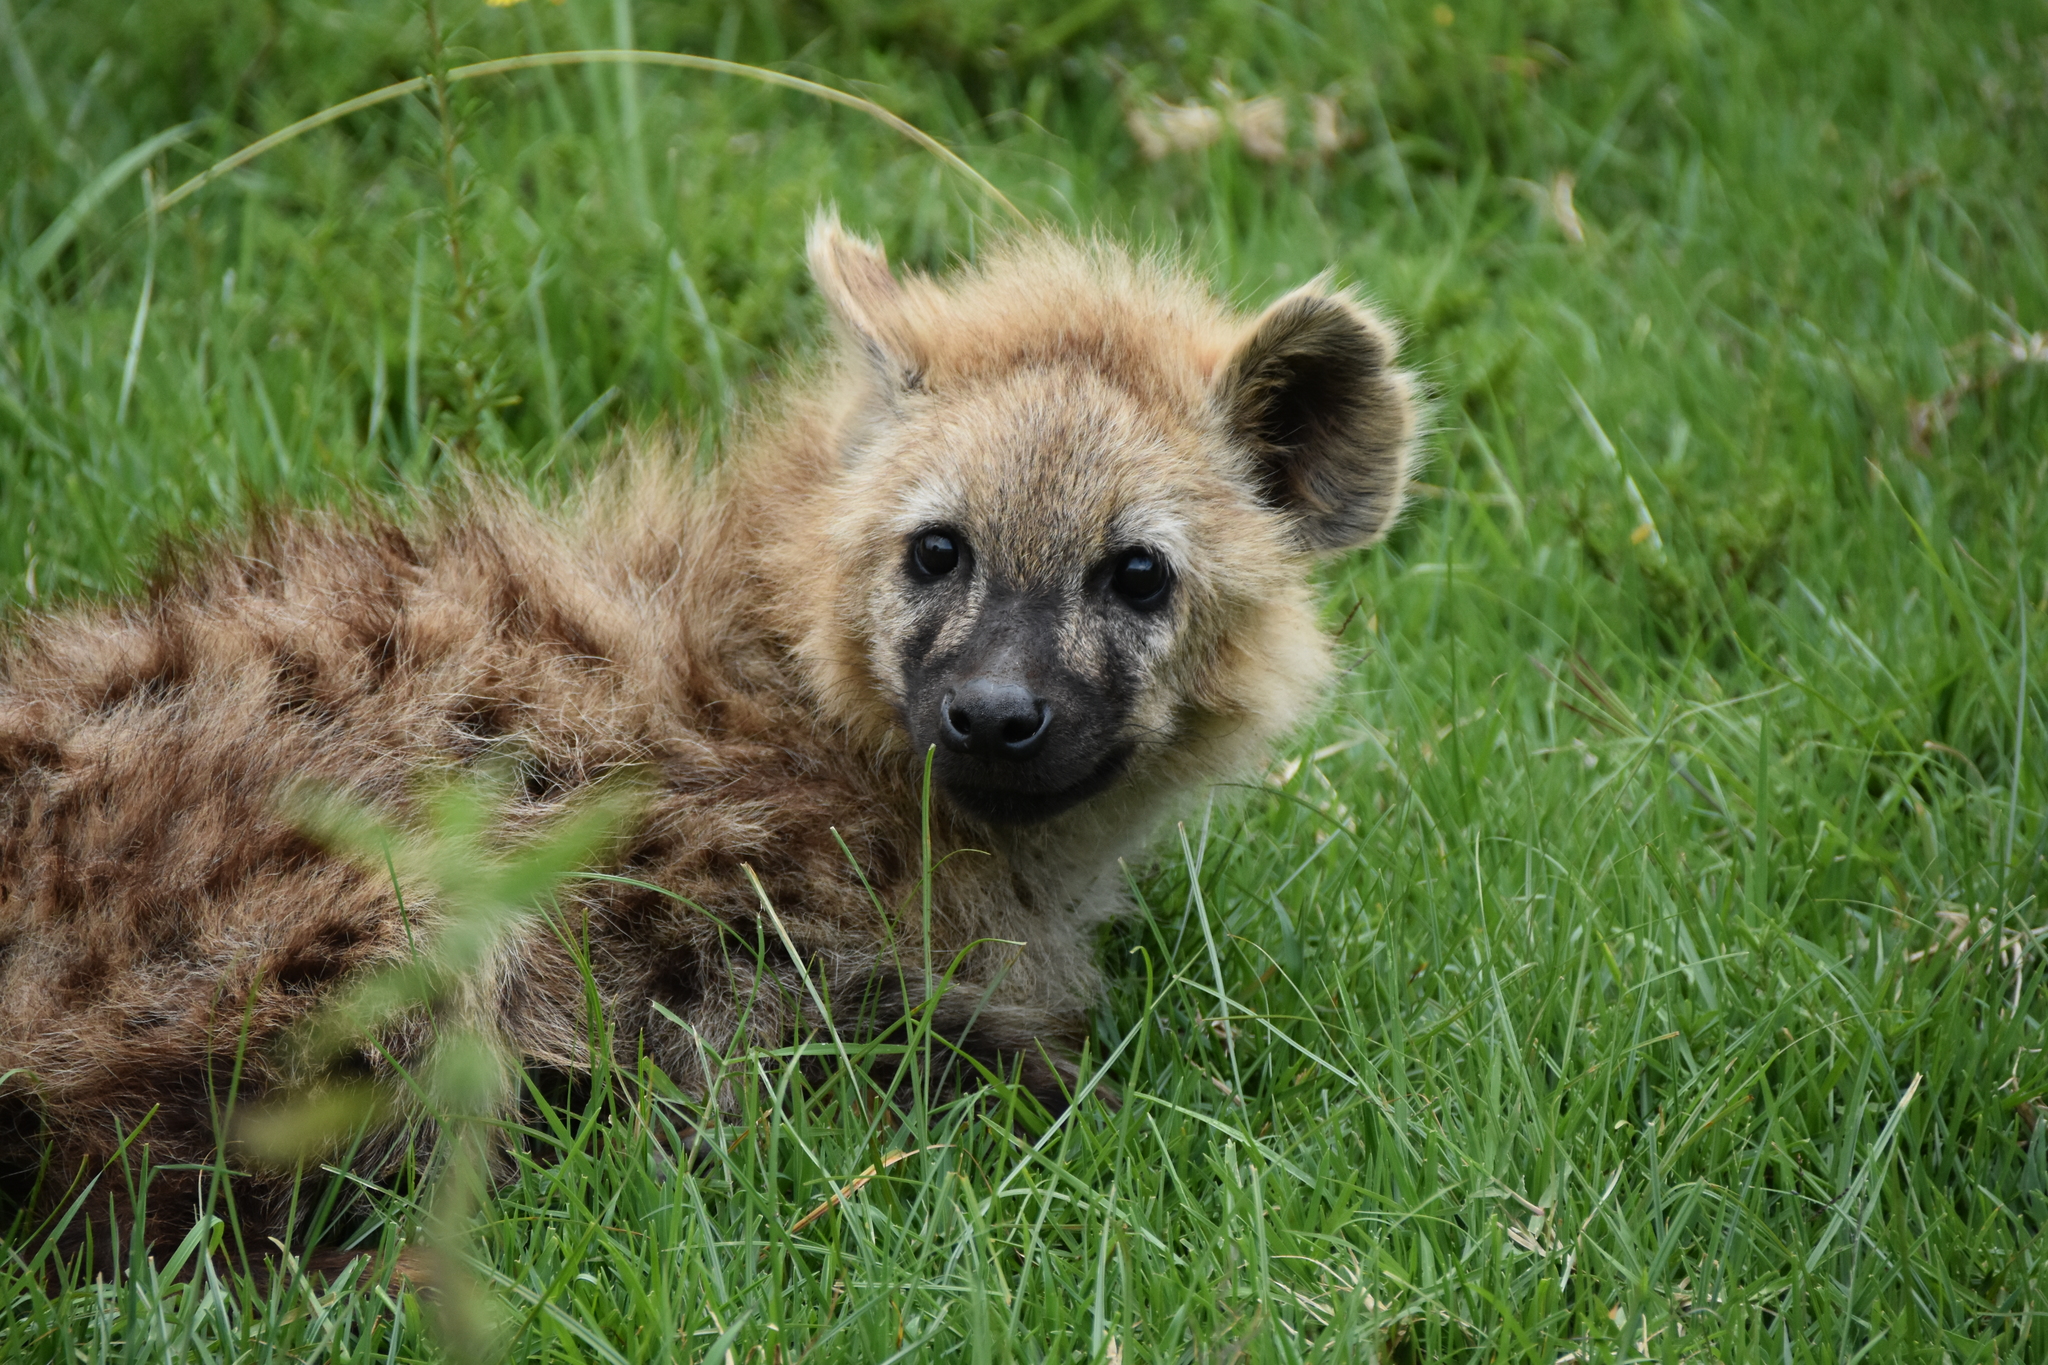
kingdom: Animalia
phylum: Chordata
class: Mammalia
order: Carnivora
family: Hyaenidae
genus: Crocuta
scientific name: Crocuta crocuta
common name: Spotted hyaena
